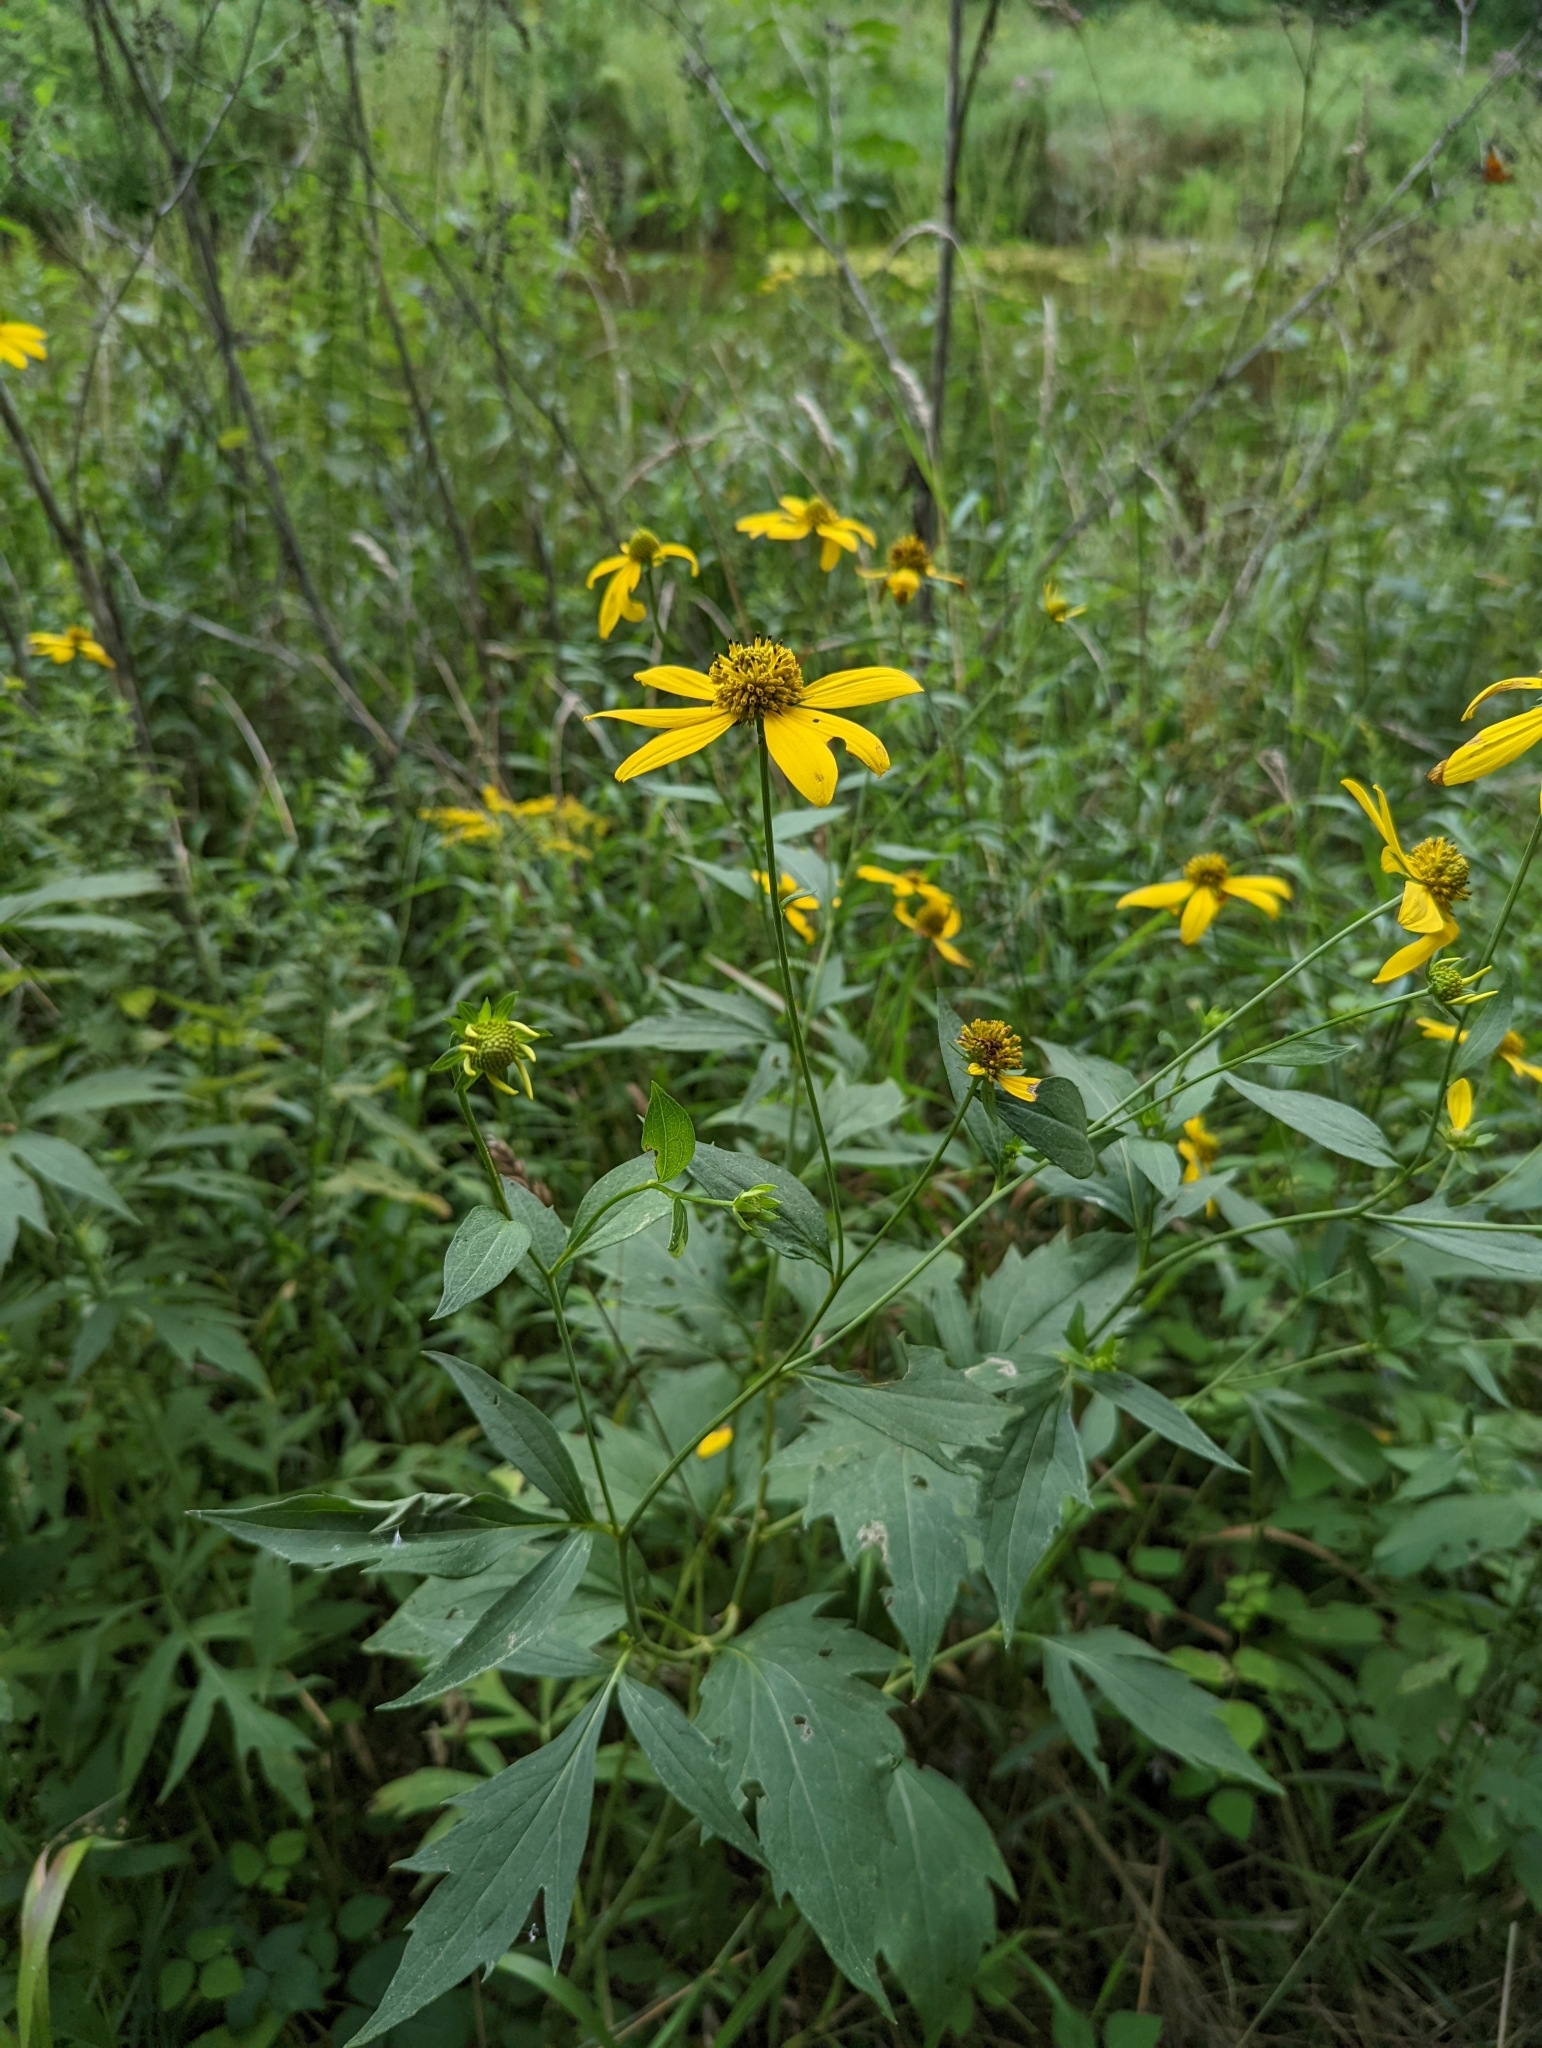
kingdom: Plantae
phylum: Tracheophyta
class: Magnoliopsida
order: Asterales
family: Asteraceae
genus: Rudbeckia
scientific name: Rudbeckia laciniata
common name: Coneflower
